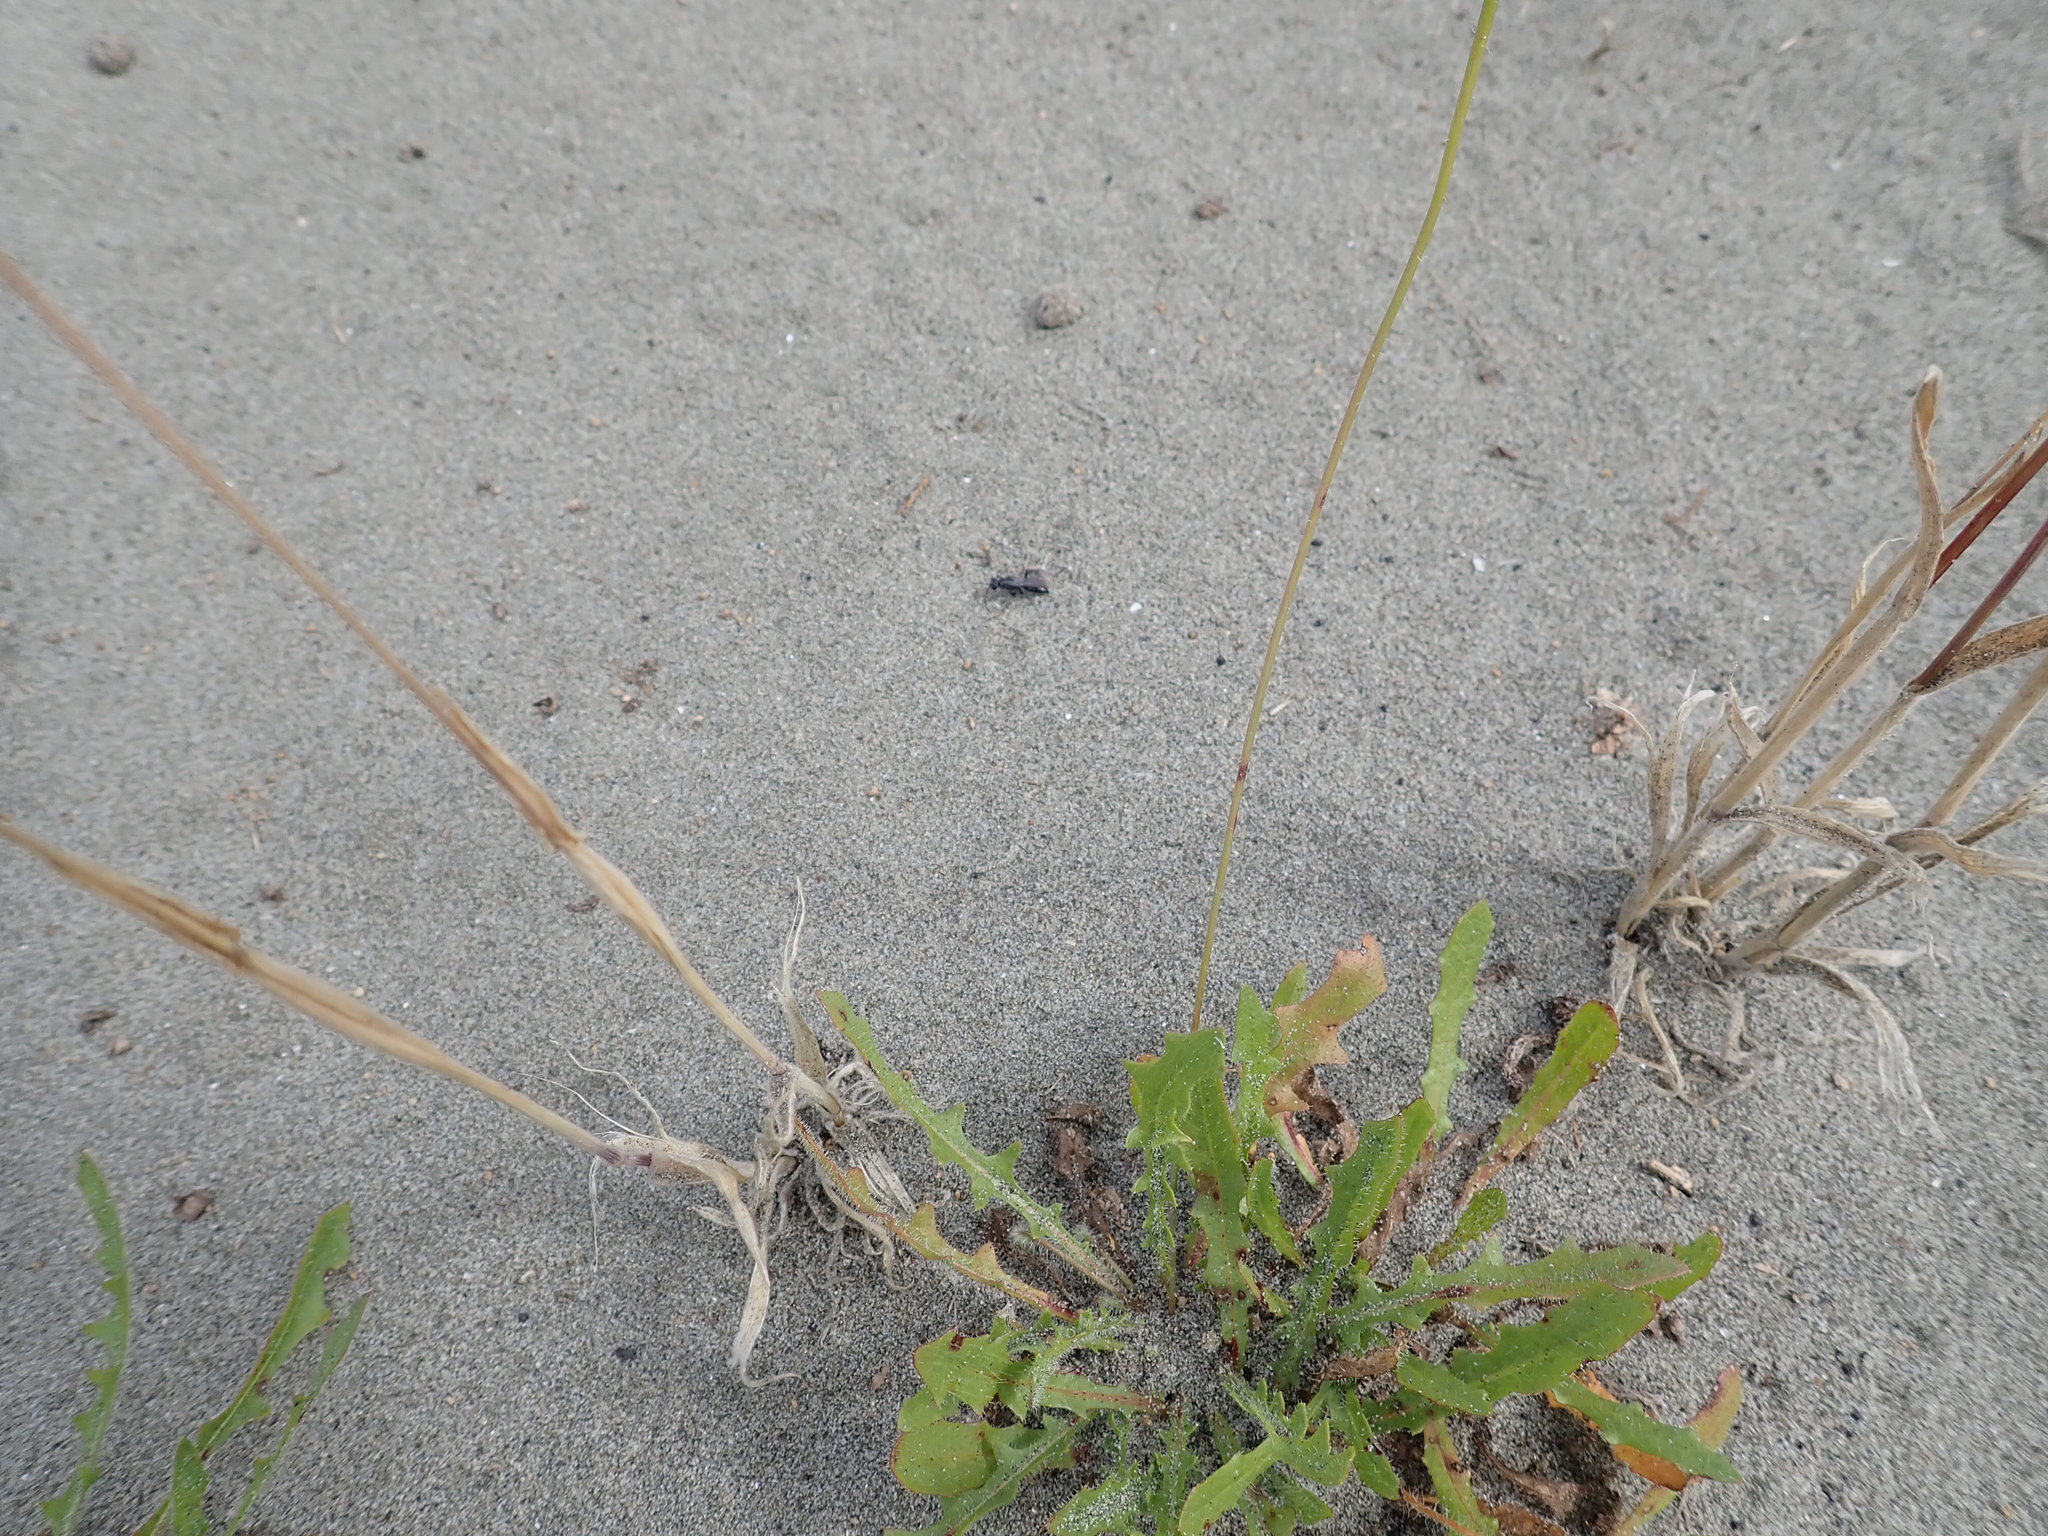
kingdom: Animalia
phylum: Arthropoda
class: Insecta
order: Hymenoptera
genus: Trichocurgus
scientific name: Trichocurgus
